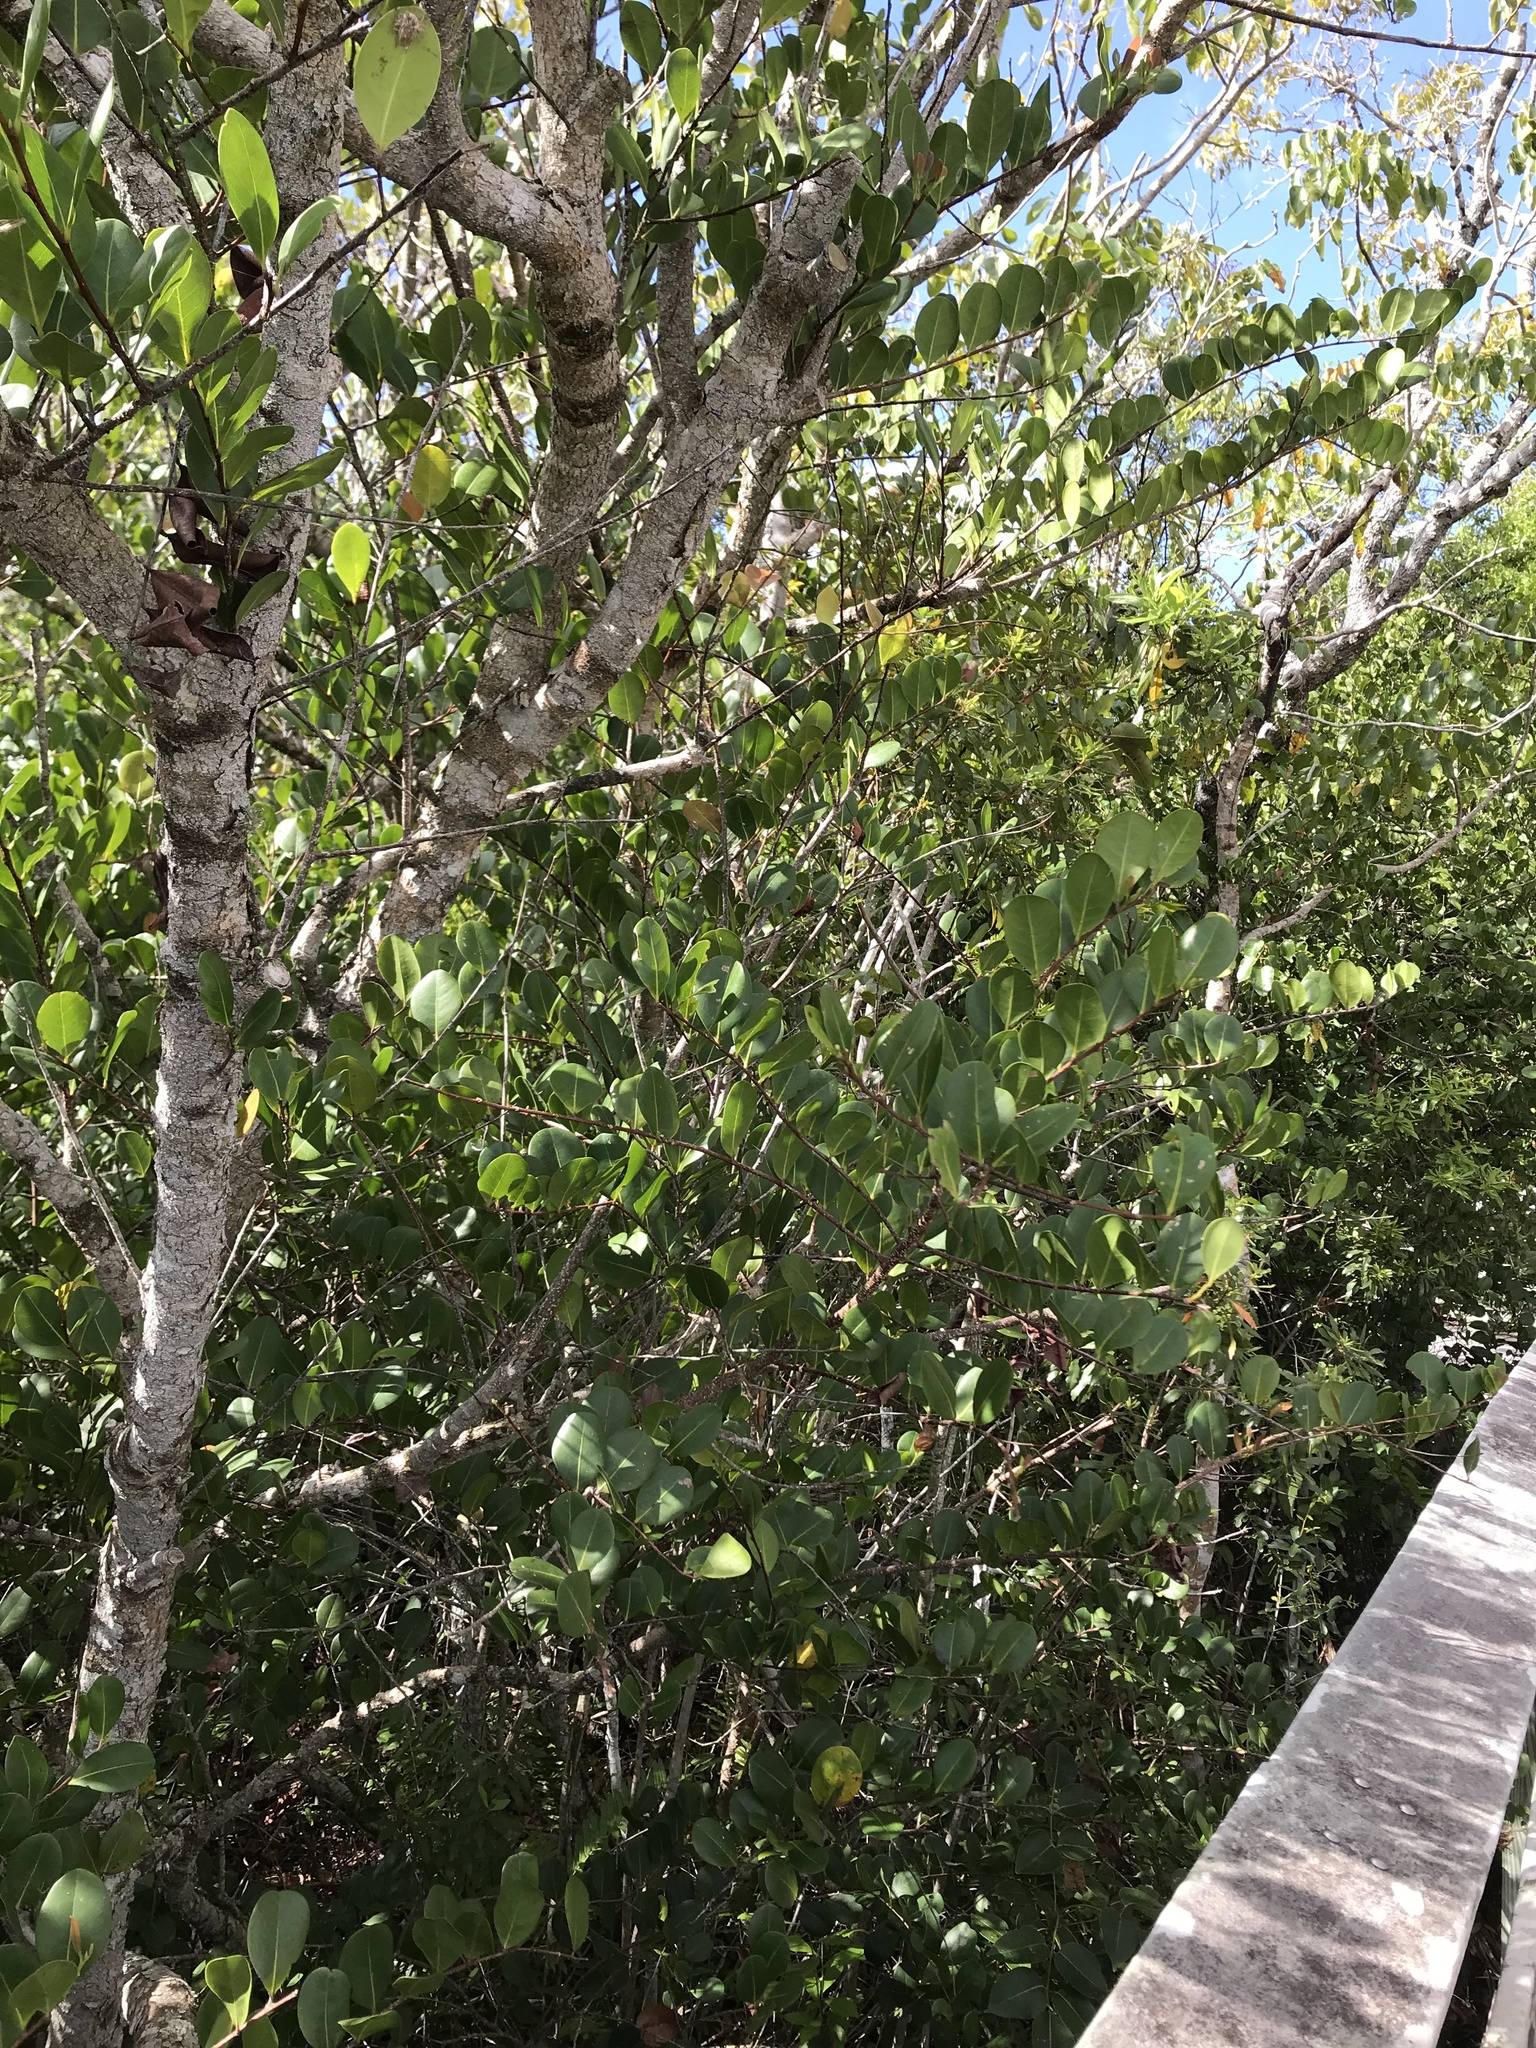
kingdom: Plantae
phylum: Tracheophyta
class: Magnoliopsida
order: Malpighiales
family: Chrysobalanaceae
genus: Chrysobalanus
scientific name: Chrysobalanus icaco
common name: Coco plum
